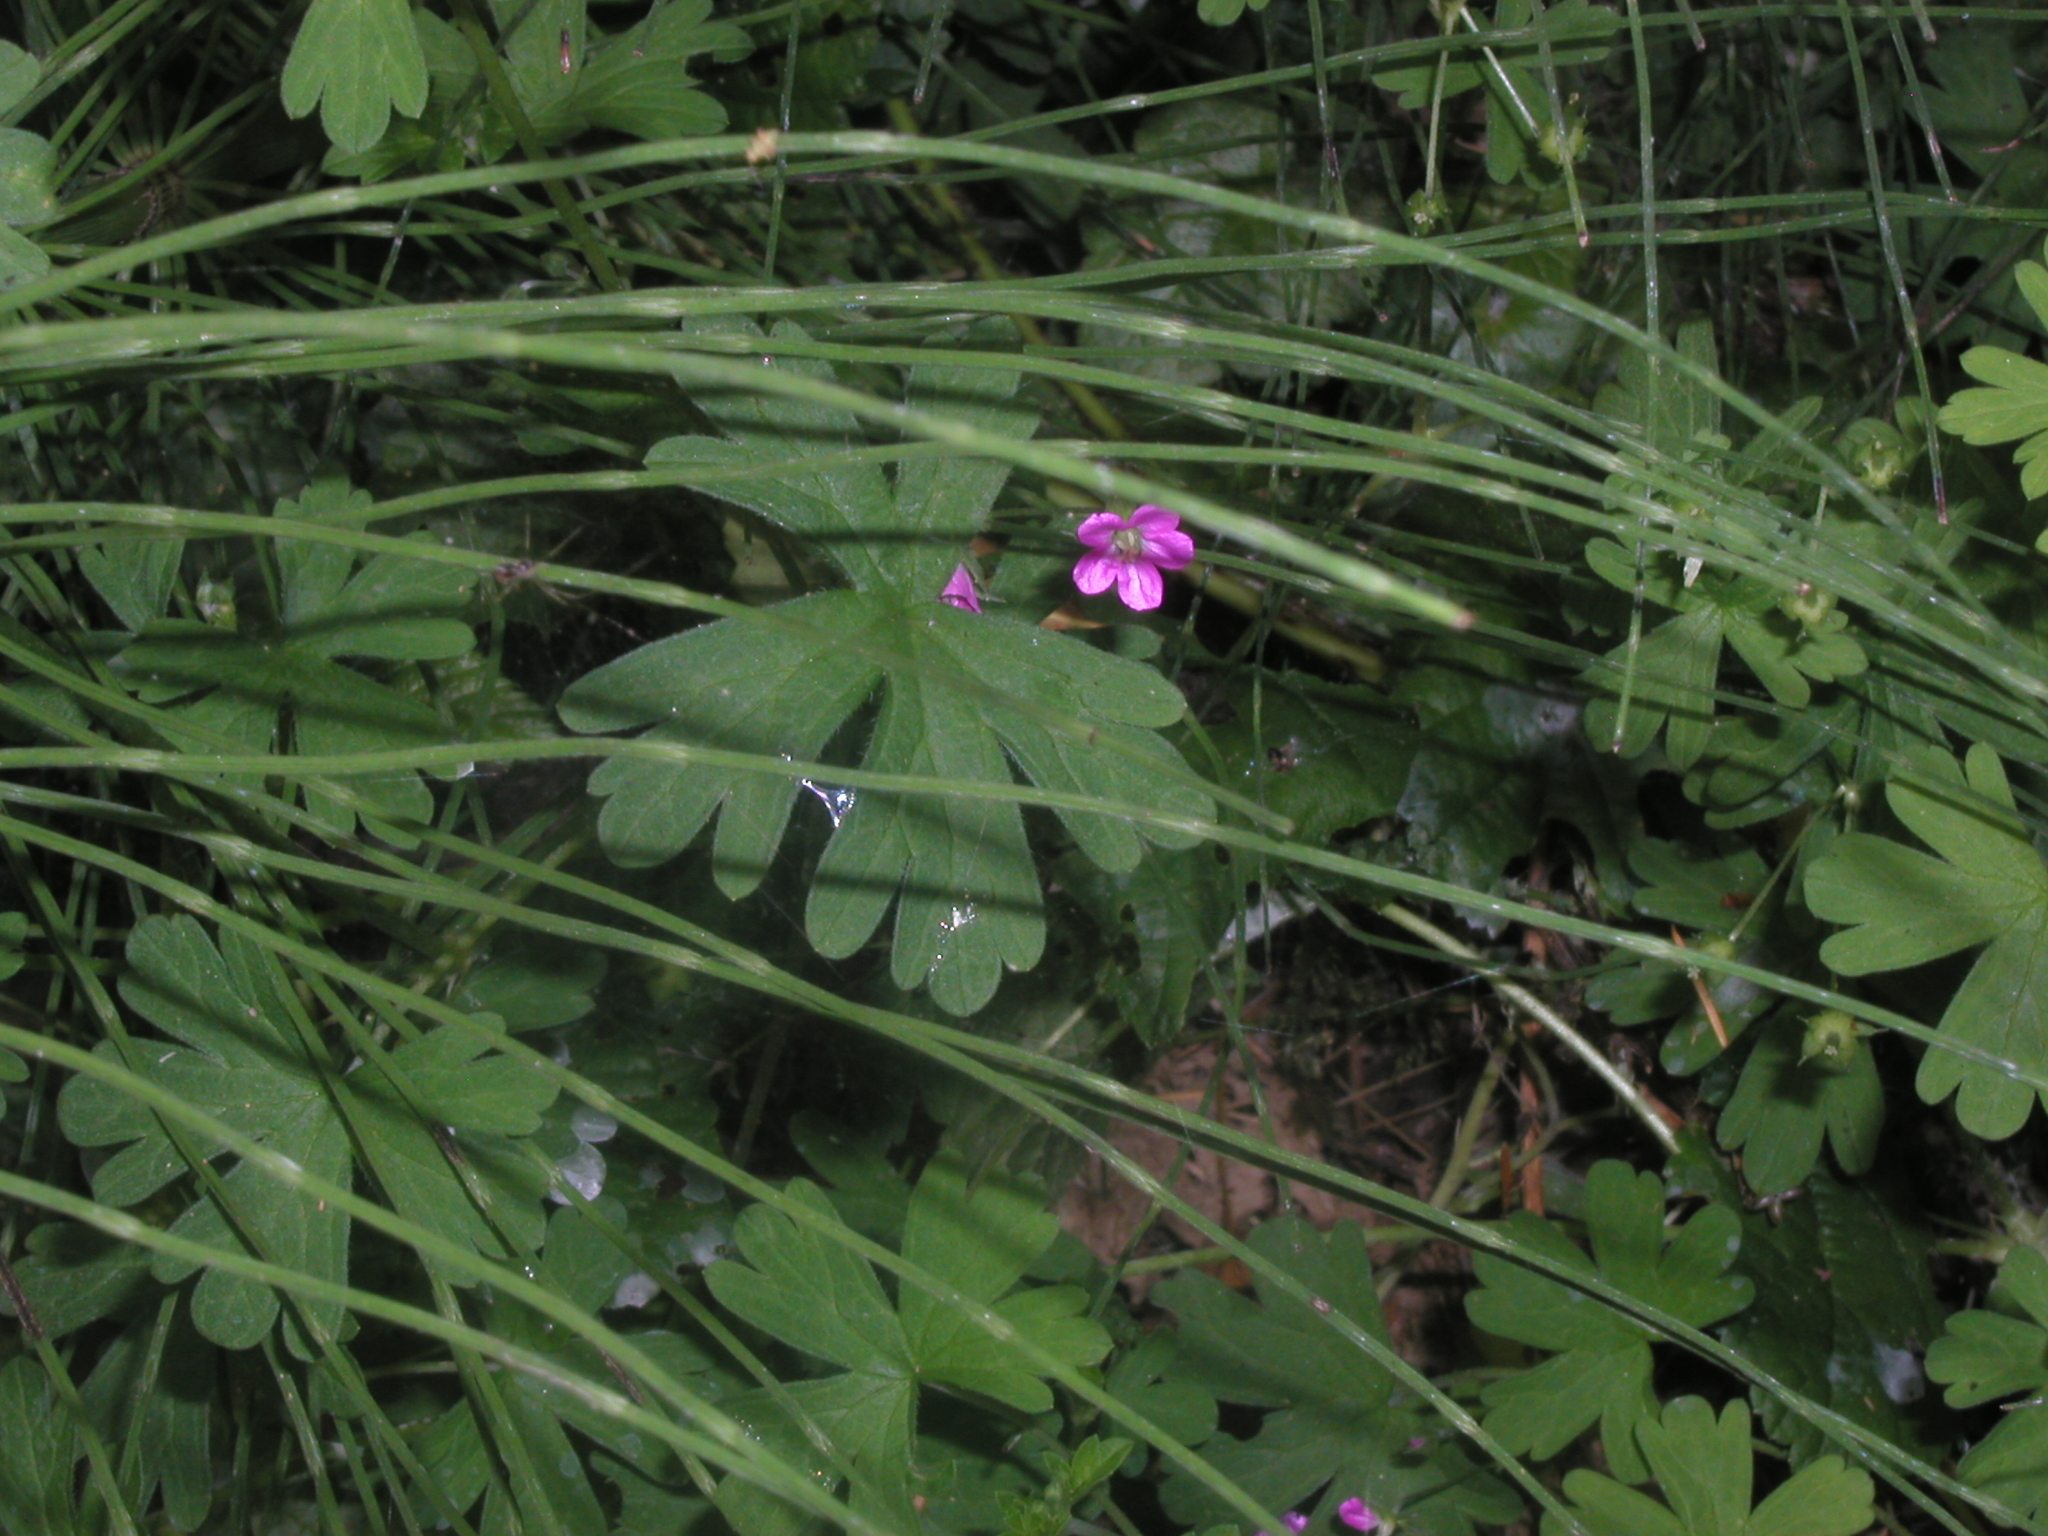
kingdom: Plantae
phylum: Tracheophyta
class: Magnoliopsida
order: Geraniales
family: Geraniaceae
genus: Geranium
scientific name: Geranium core-core
